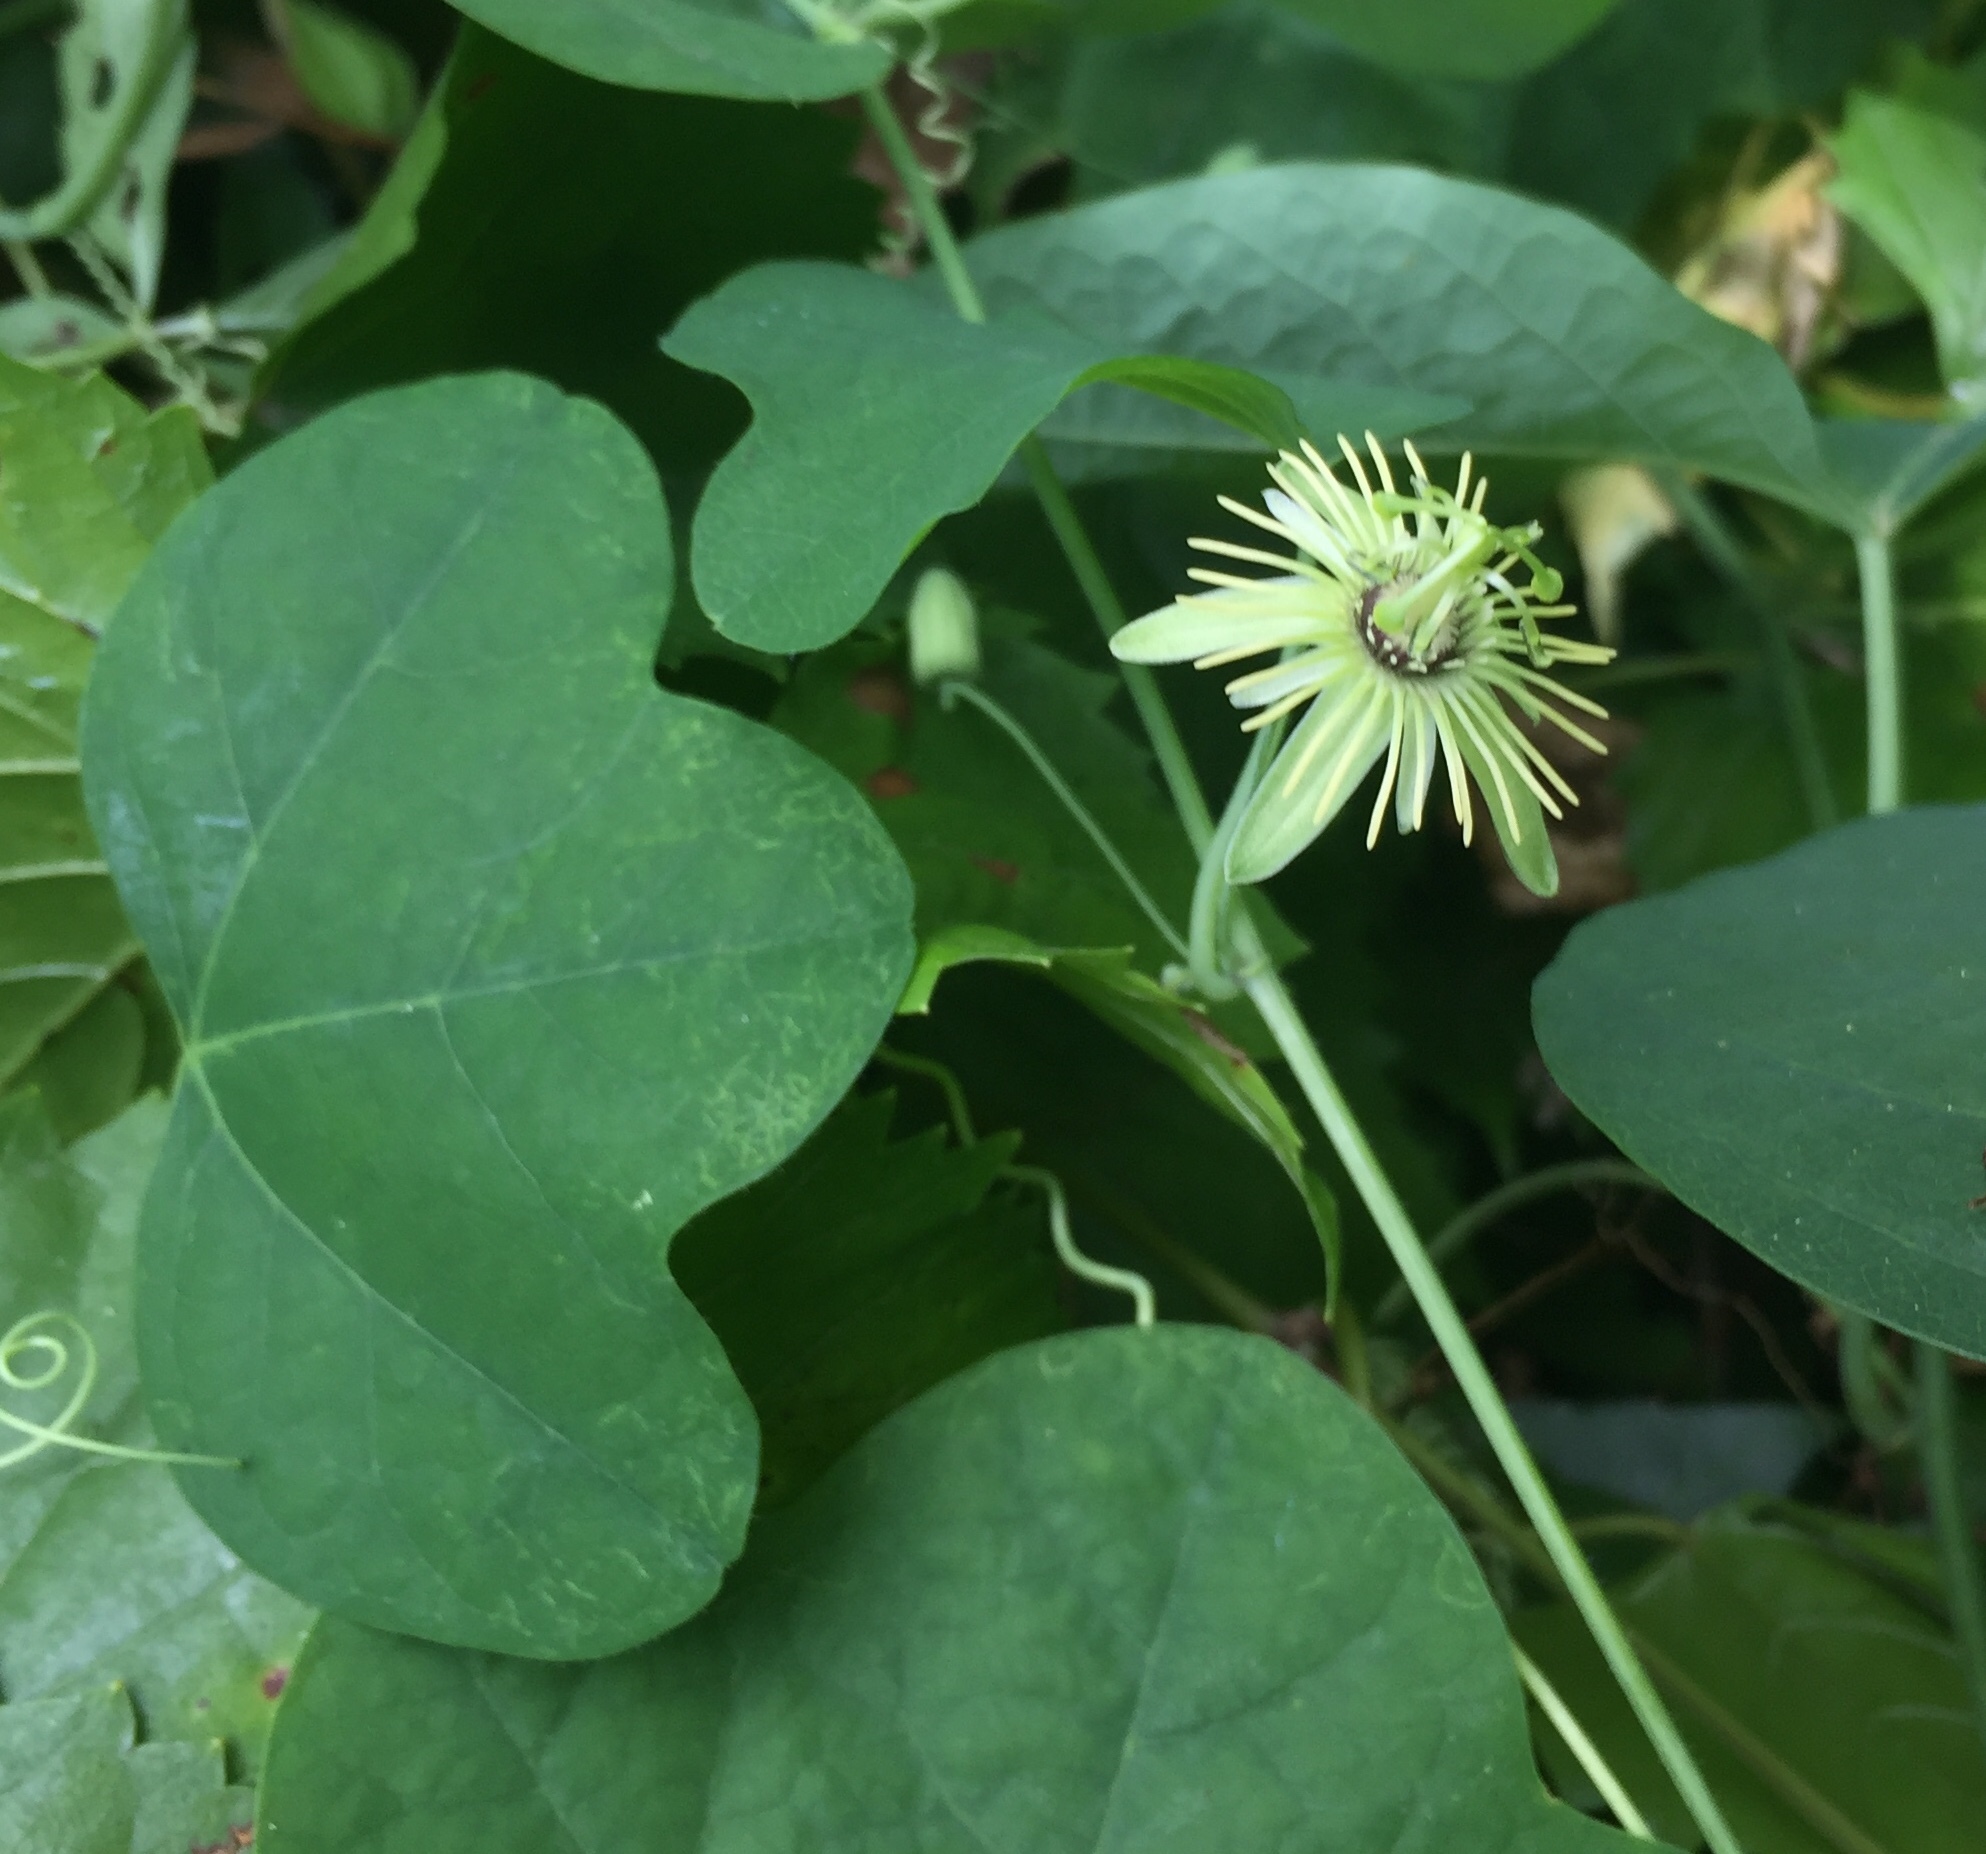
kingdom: Plantae
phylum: Tracheophyta
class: Magnoliopsida
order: Malpighiales
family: Passifloraceae
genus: Passiflora
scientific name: Passiflora lutea
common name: Yellow passionflower
